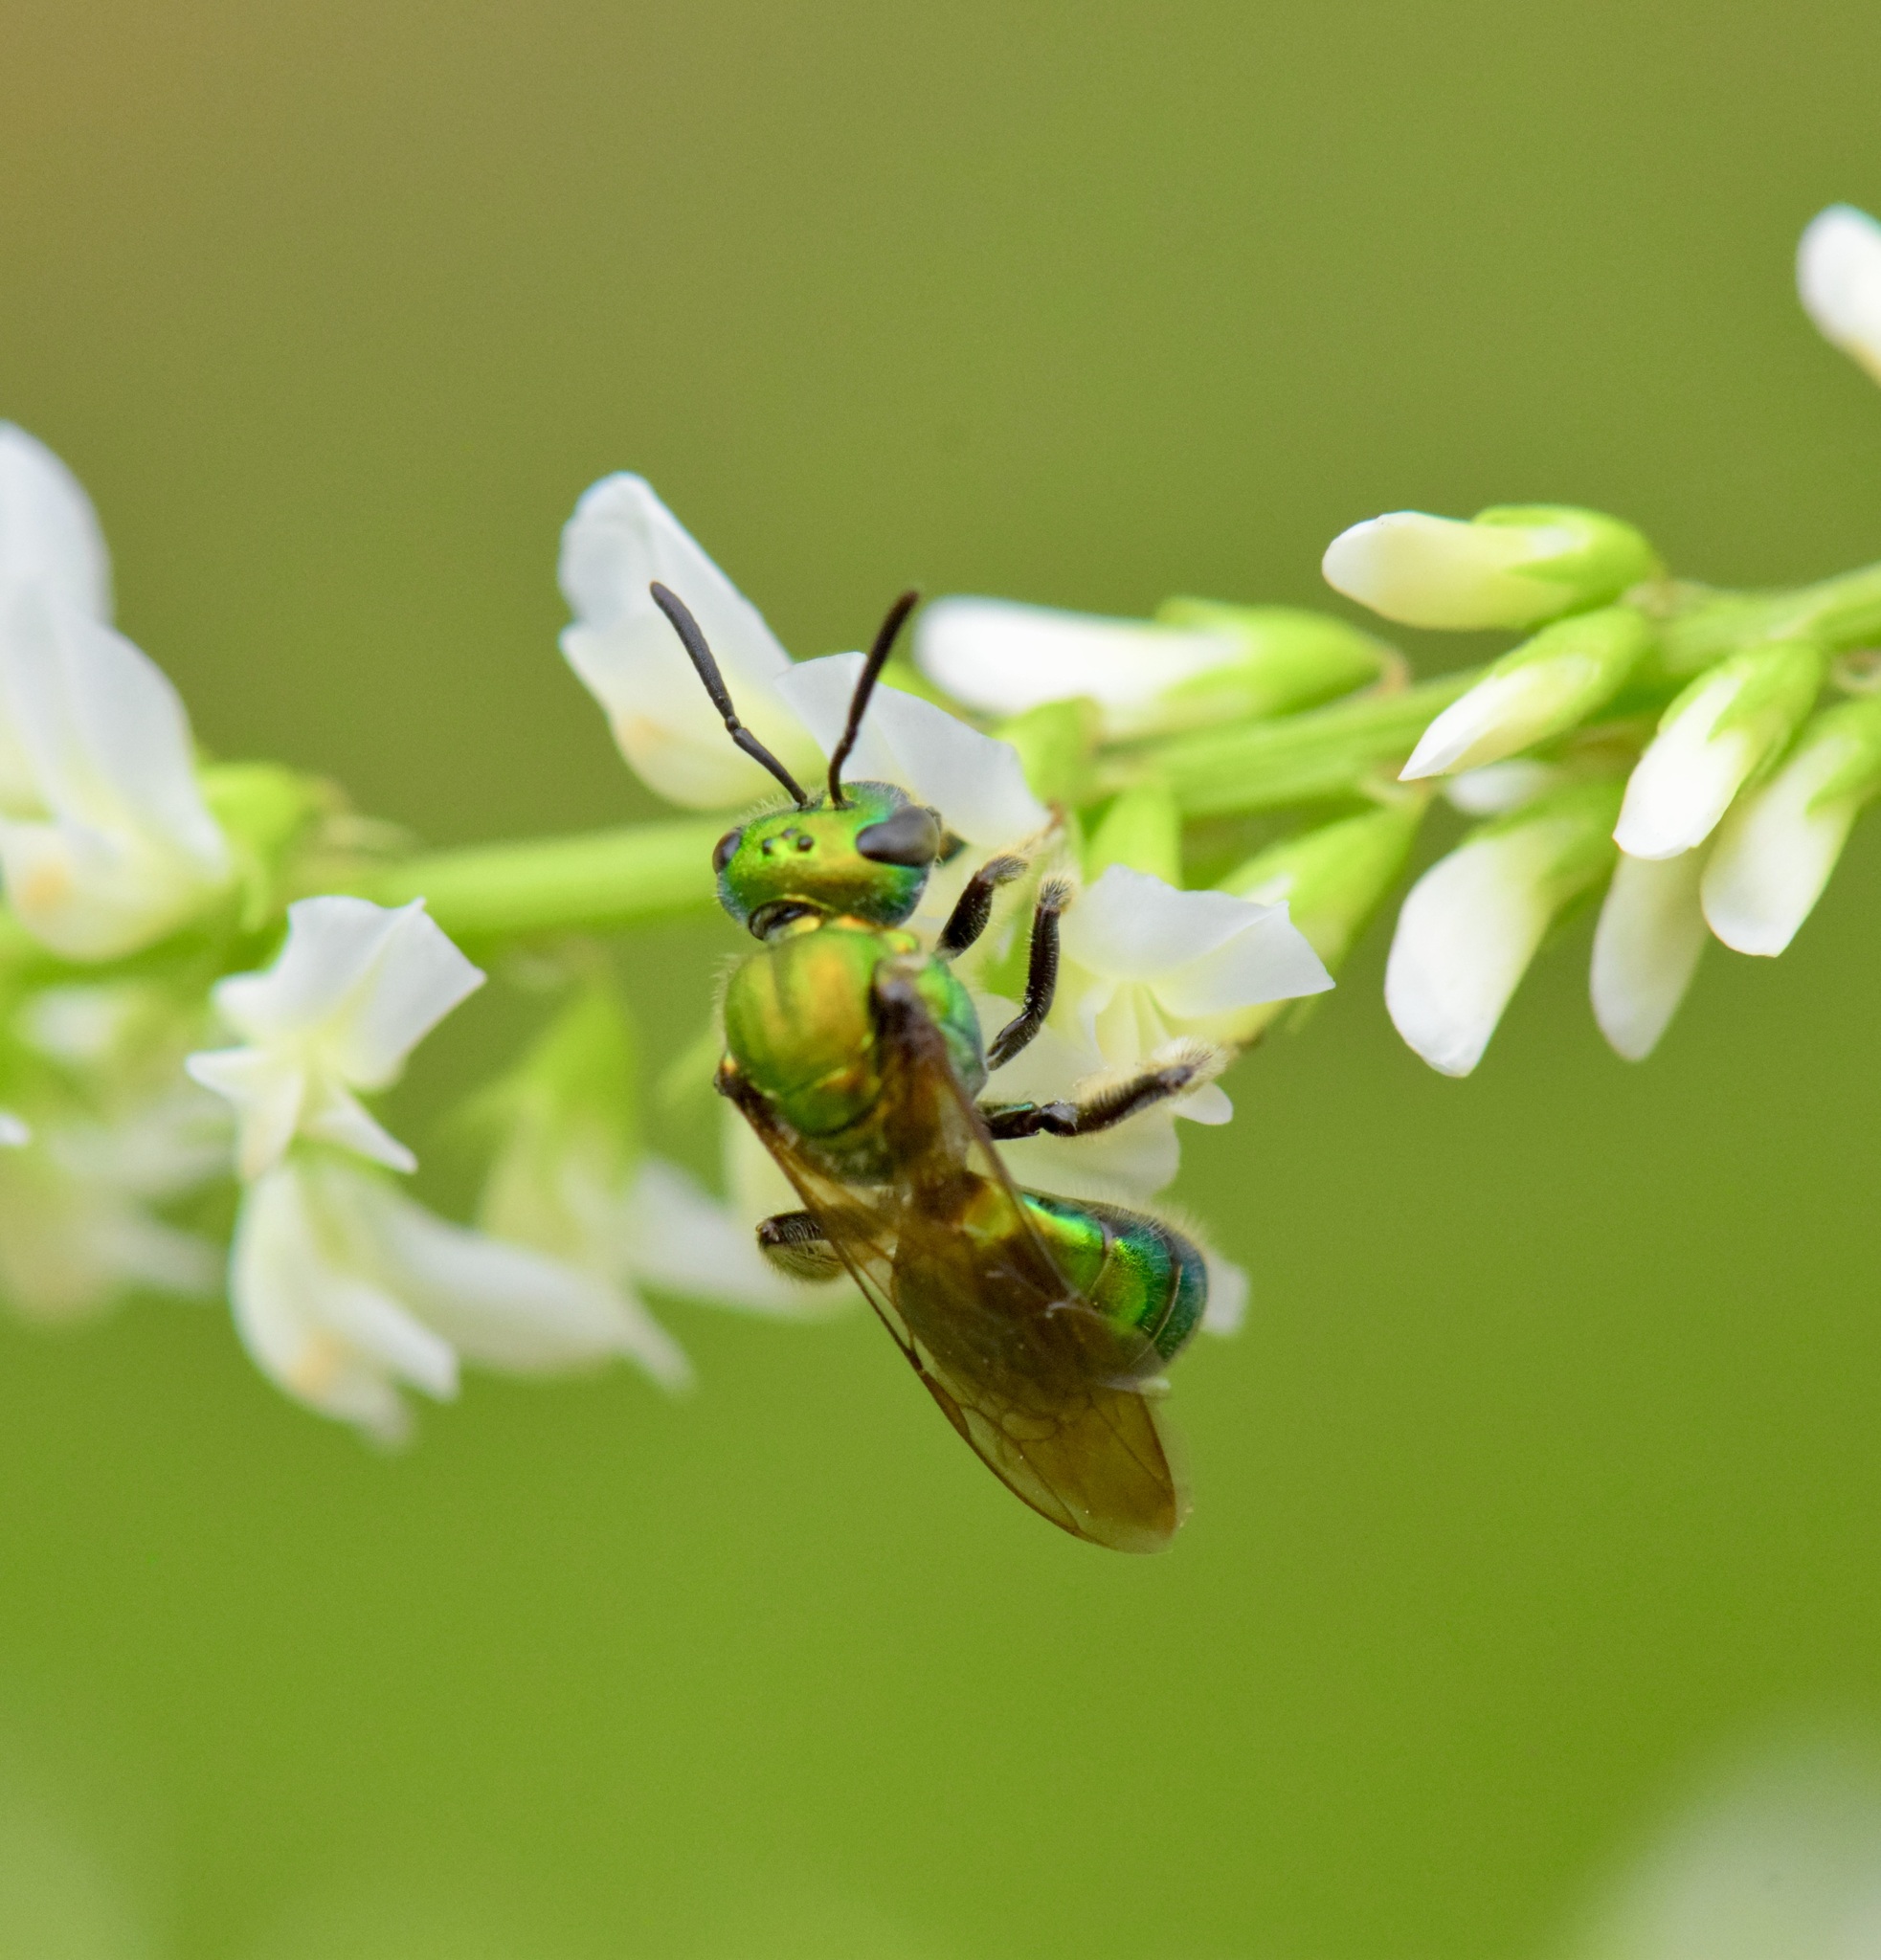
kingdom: Animalia
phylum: Arthropoda
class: Insecta
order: Hymenoptera
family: Halictidae
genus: Augochlora
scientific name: Augochlora pura
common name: Pure green sweat bee
